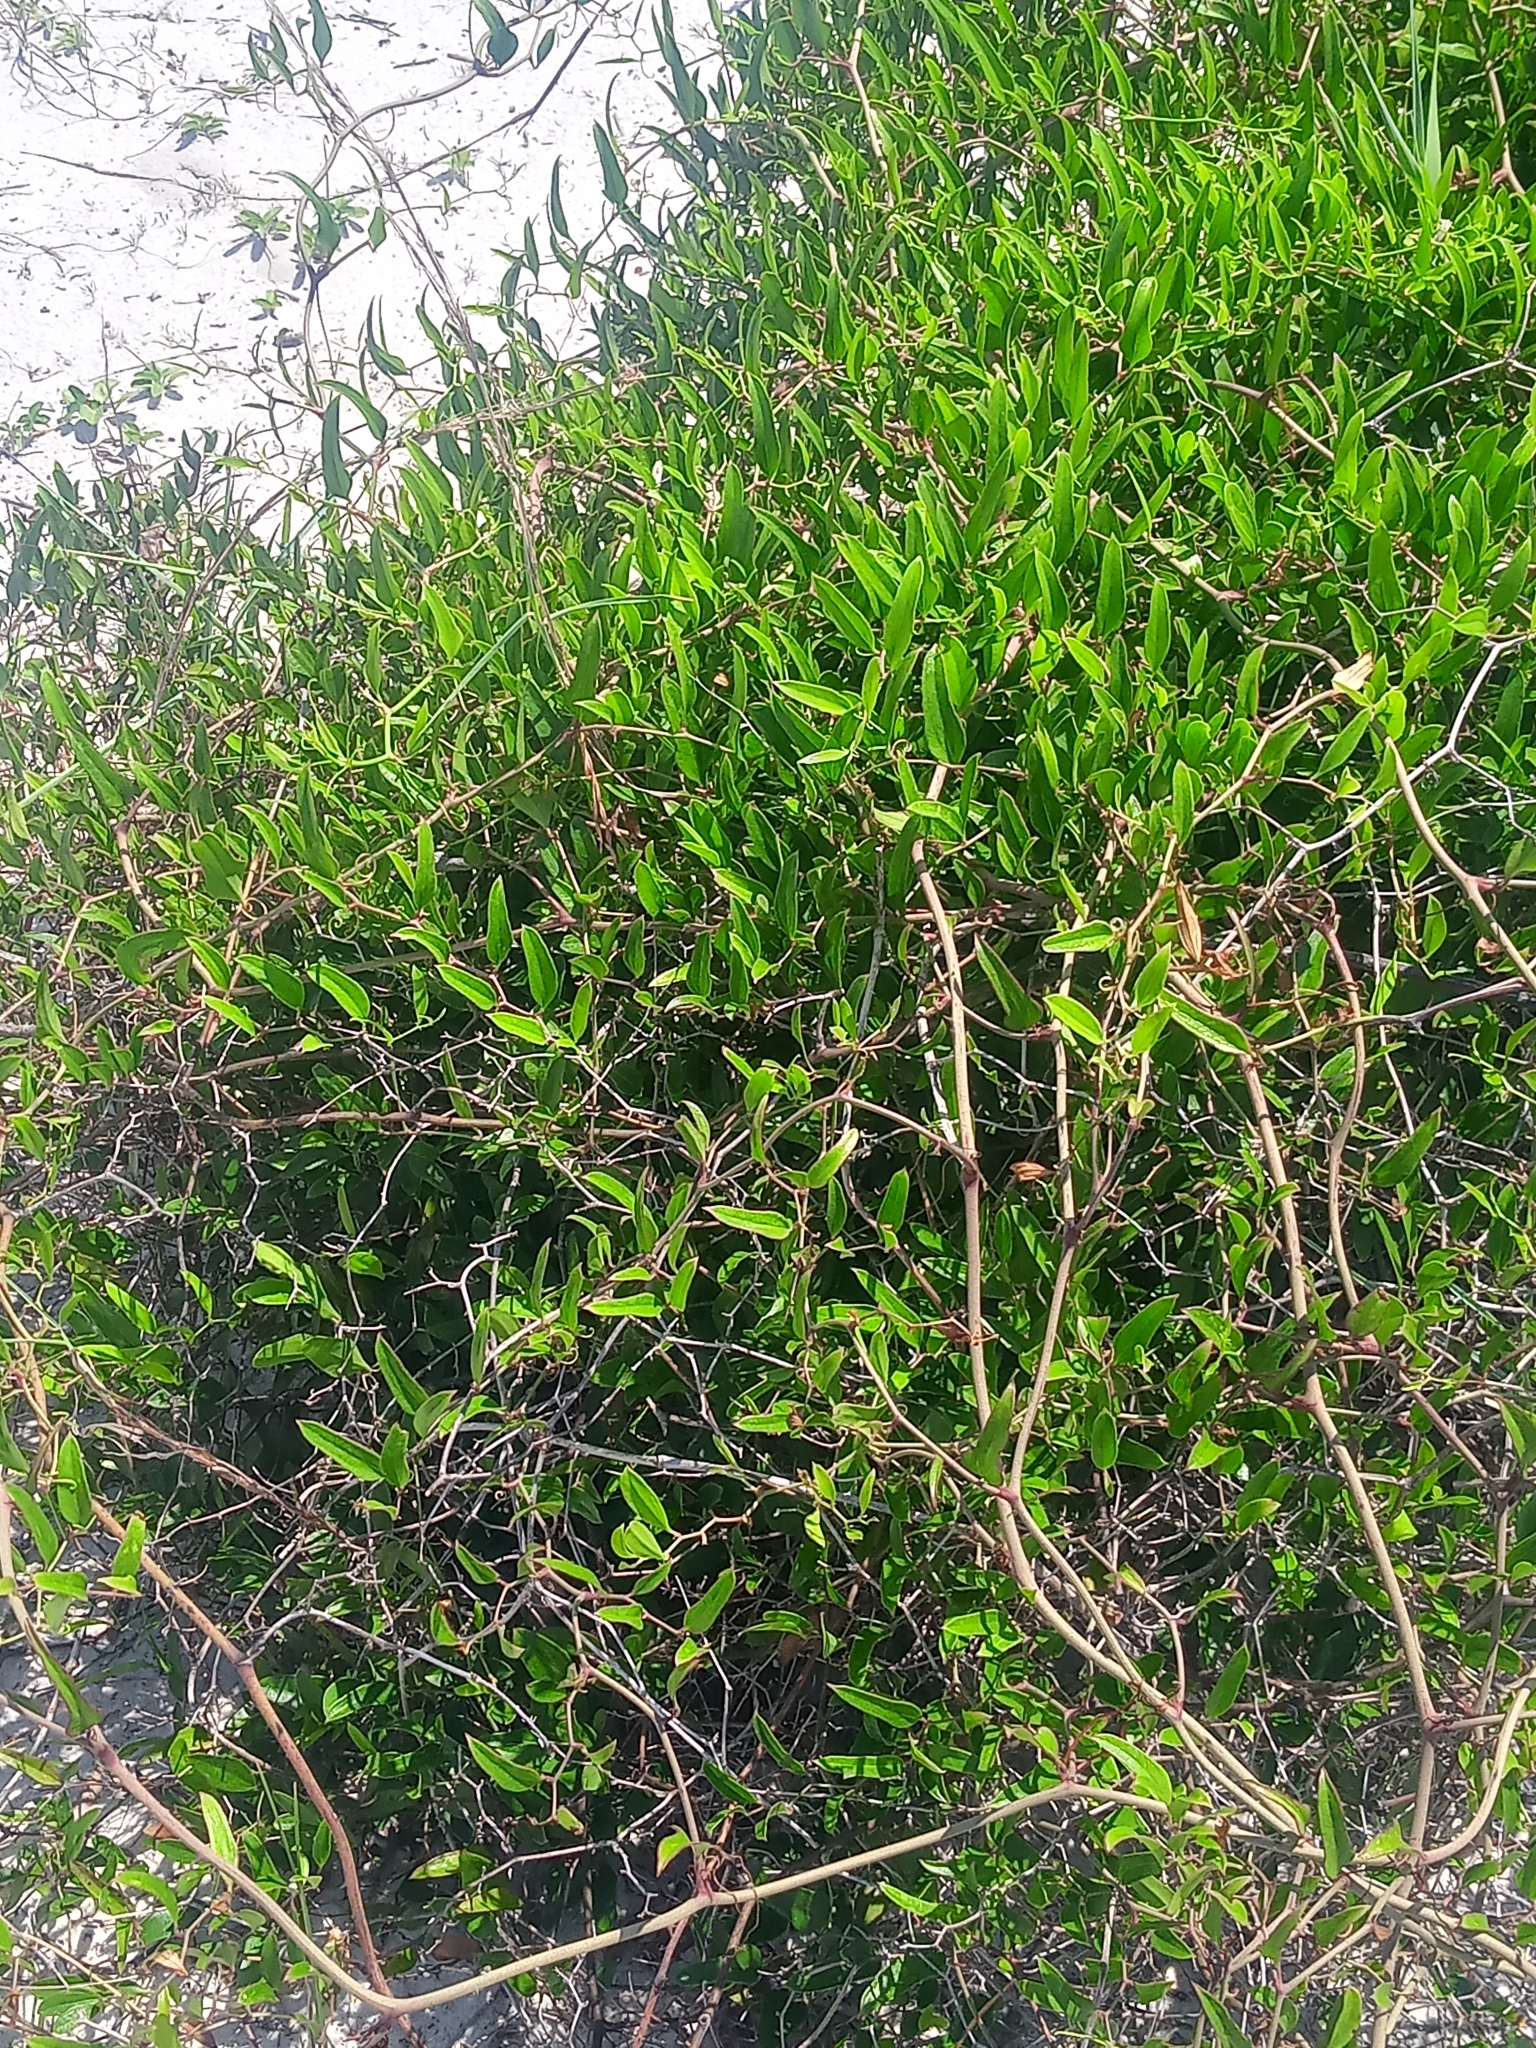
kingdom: Plantae
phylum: Tracheophyta
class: Liliopsida
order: Liliales
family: Smilacaceae
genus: Smilax
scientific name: Smilax auriculata
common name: Wild bamboo
